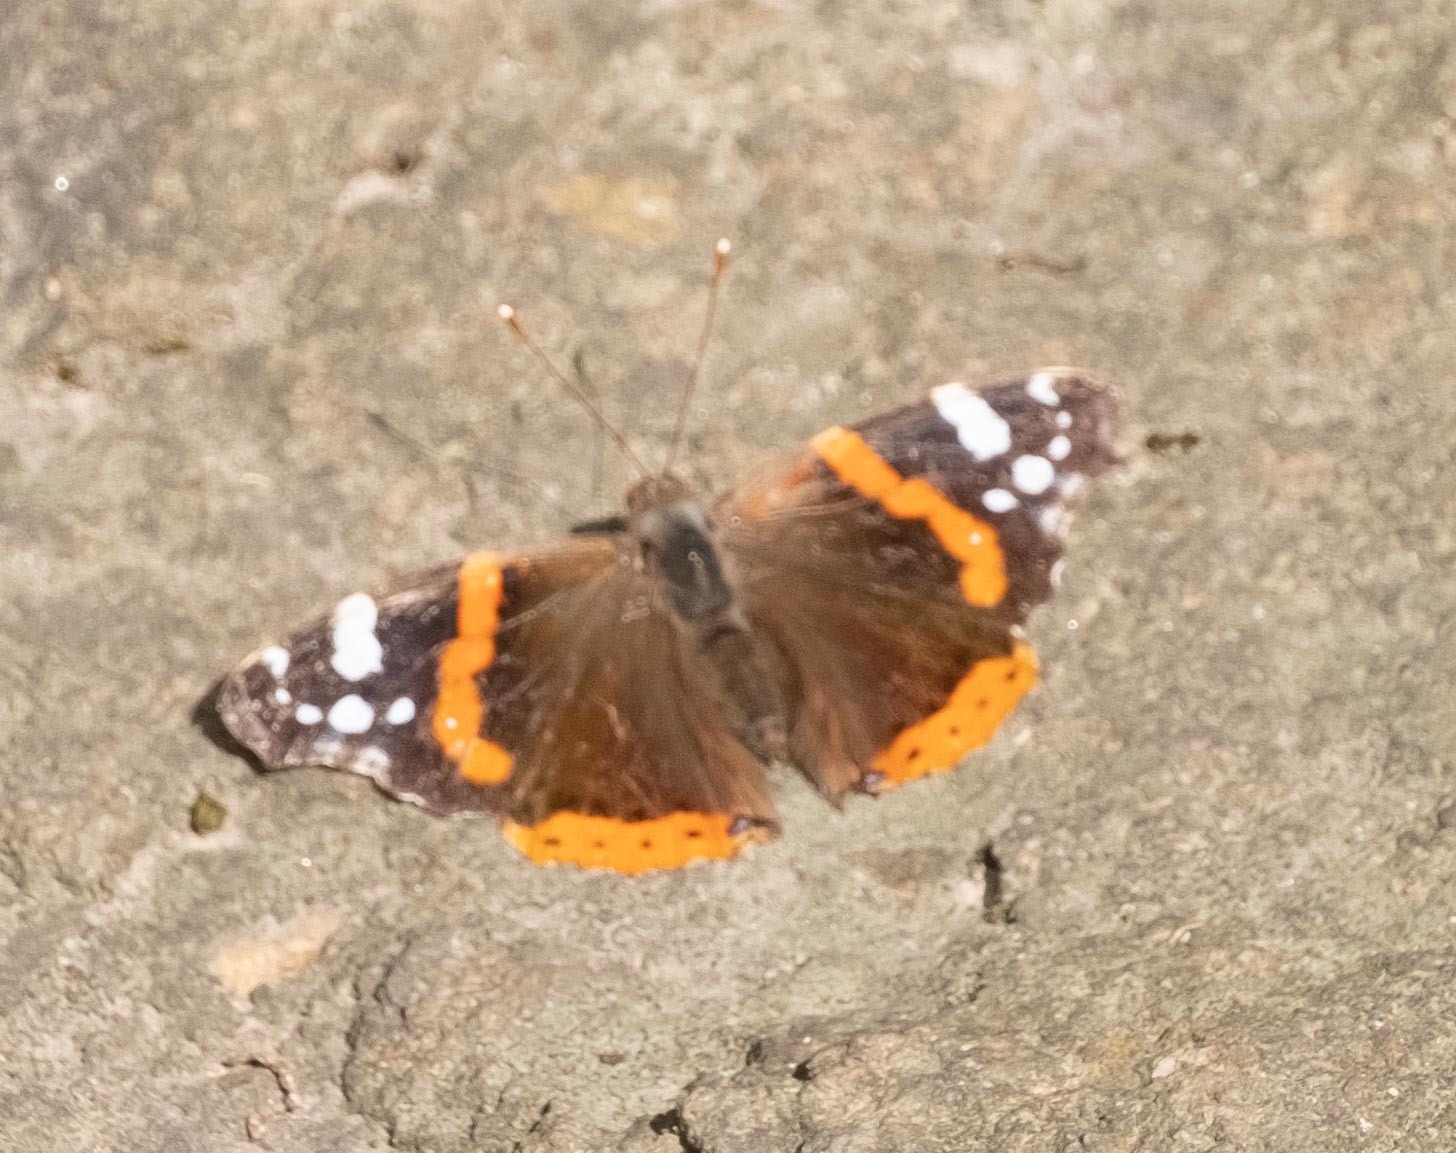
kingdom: Animalia
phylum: Arthropoda
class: Insecta
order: Lepidoptera
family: Nymphalidae
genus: Vanessa
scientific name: Vanessa atalanta
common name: Red admiral
